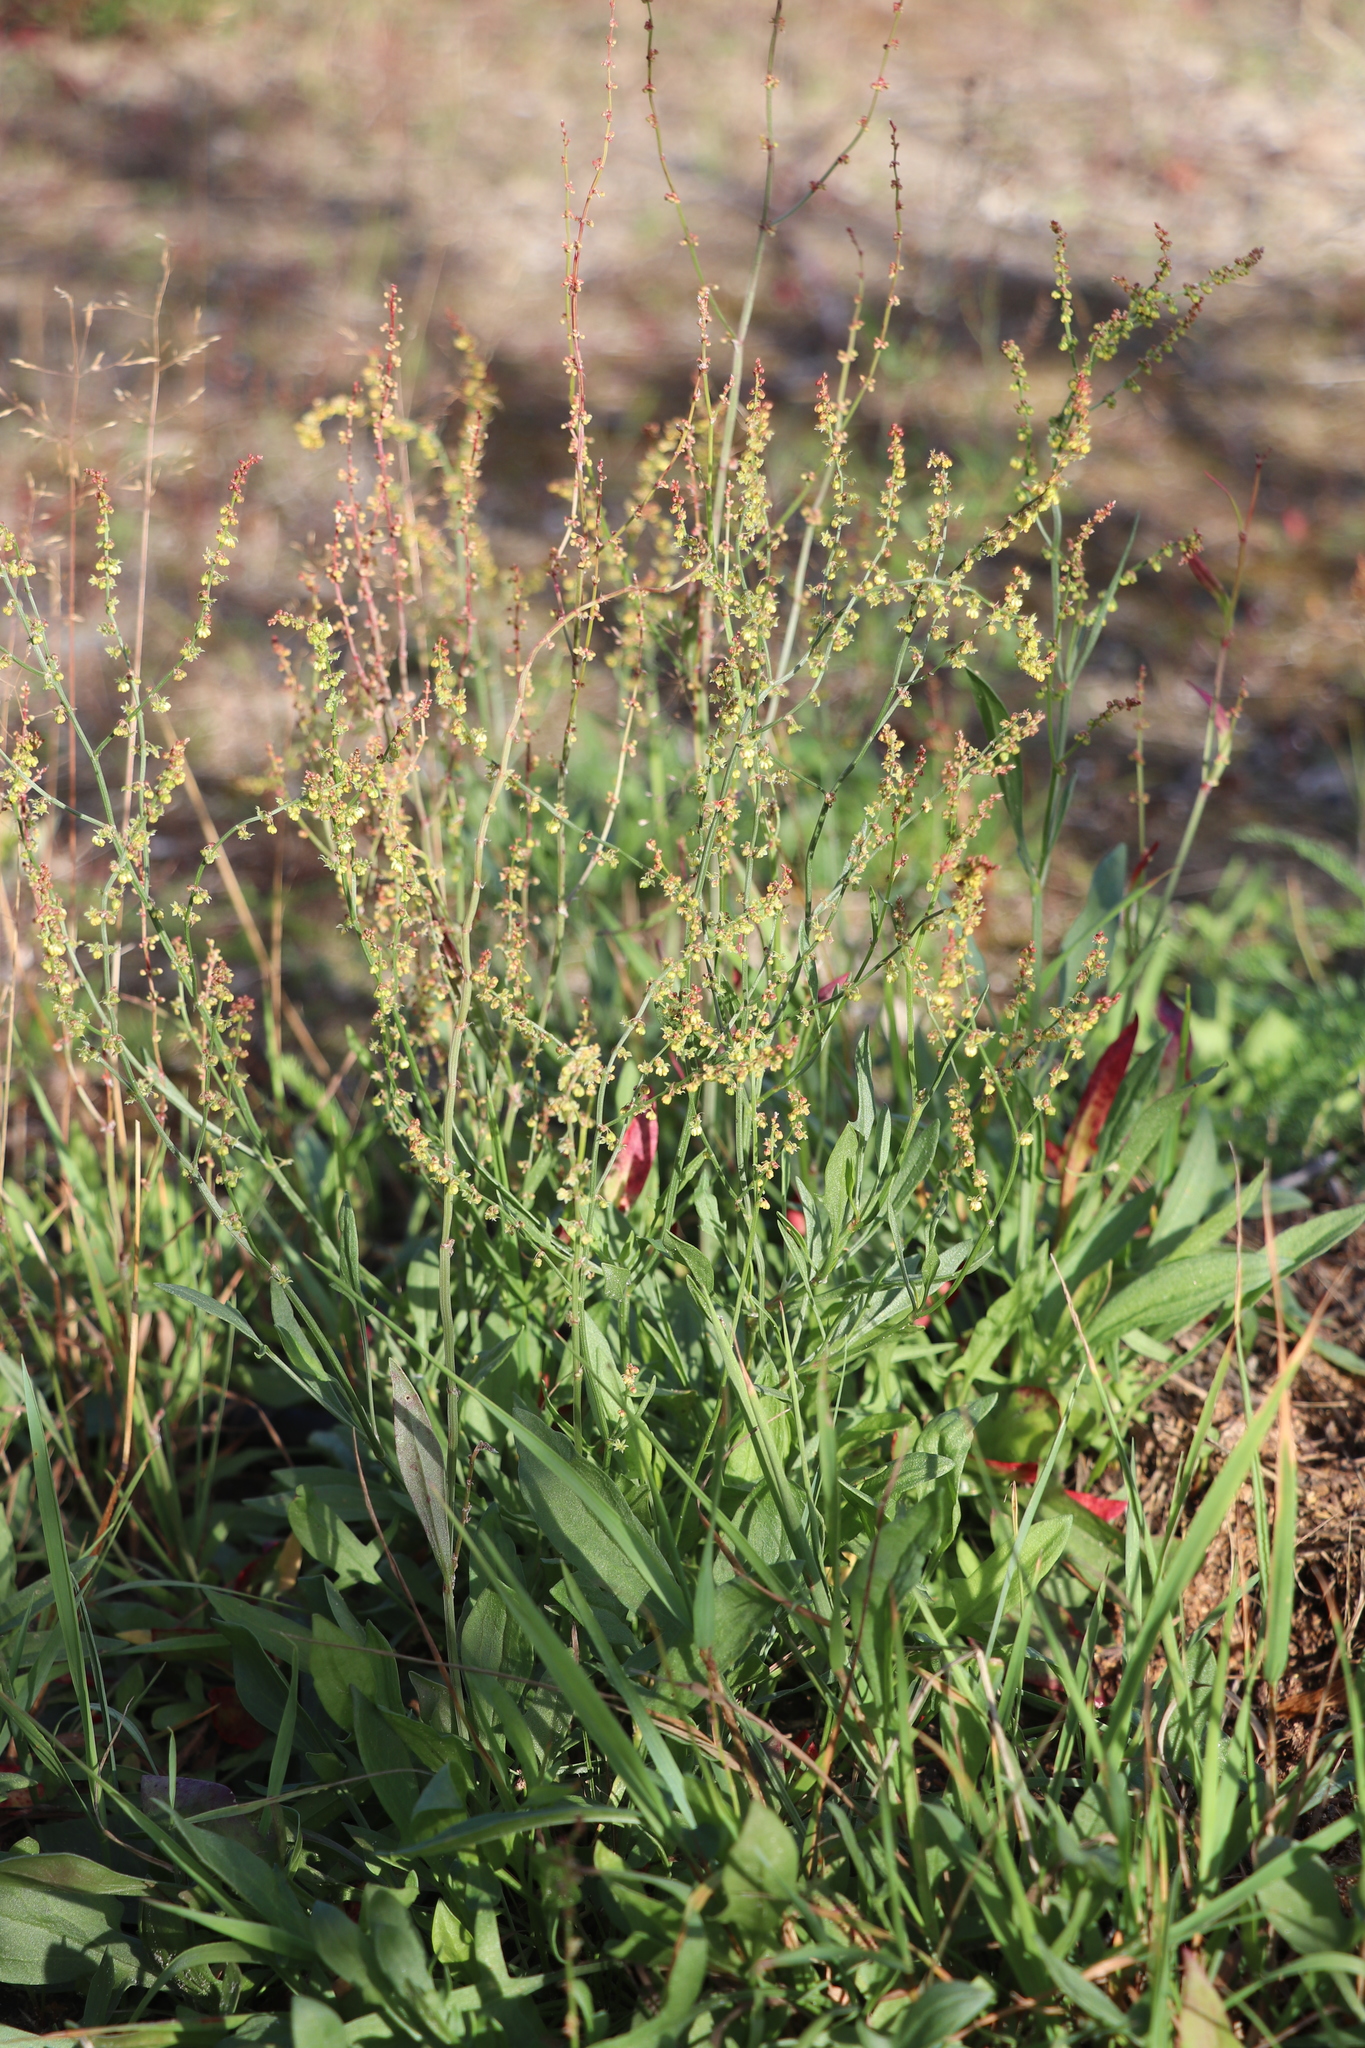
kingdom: Plantae
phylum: Tracheophyta
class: Magnoliopsida
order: Caryophyllales
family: Polygonaceae
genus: Rumex
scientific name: Rumex acetosella
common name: Common sheep sorrel
